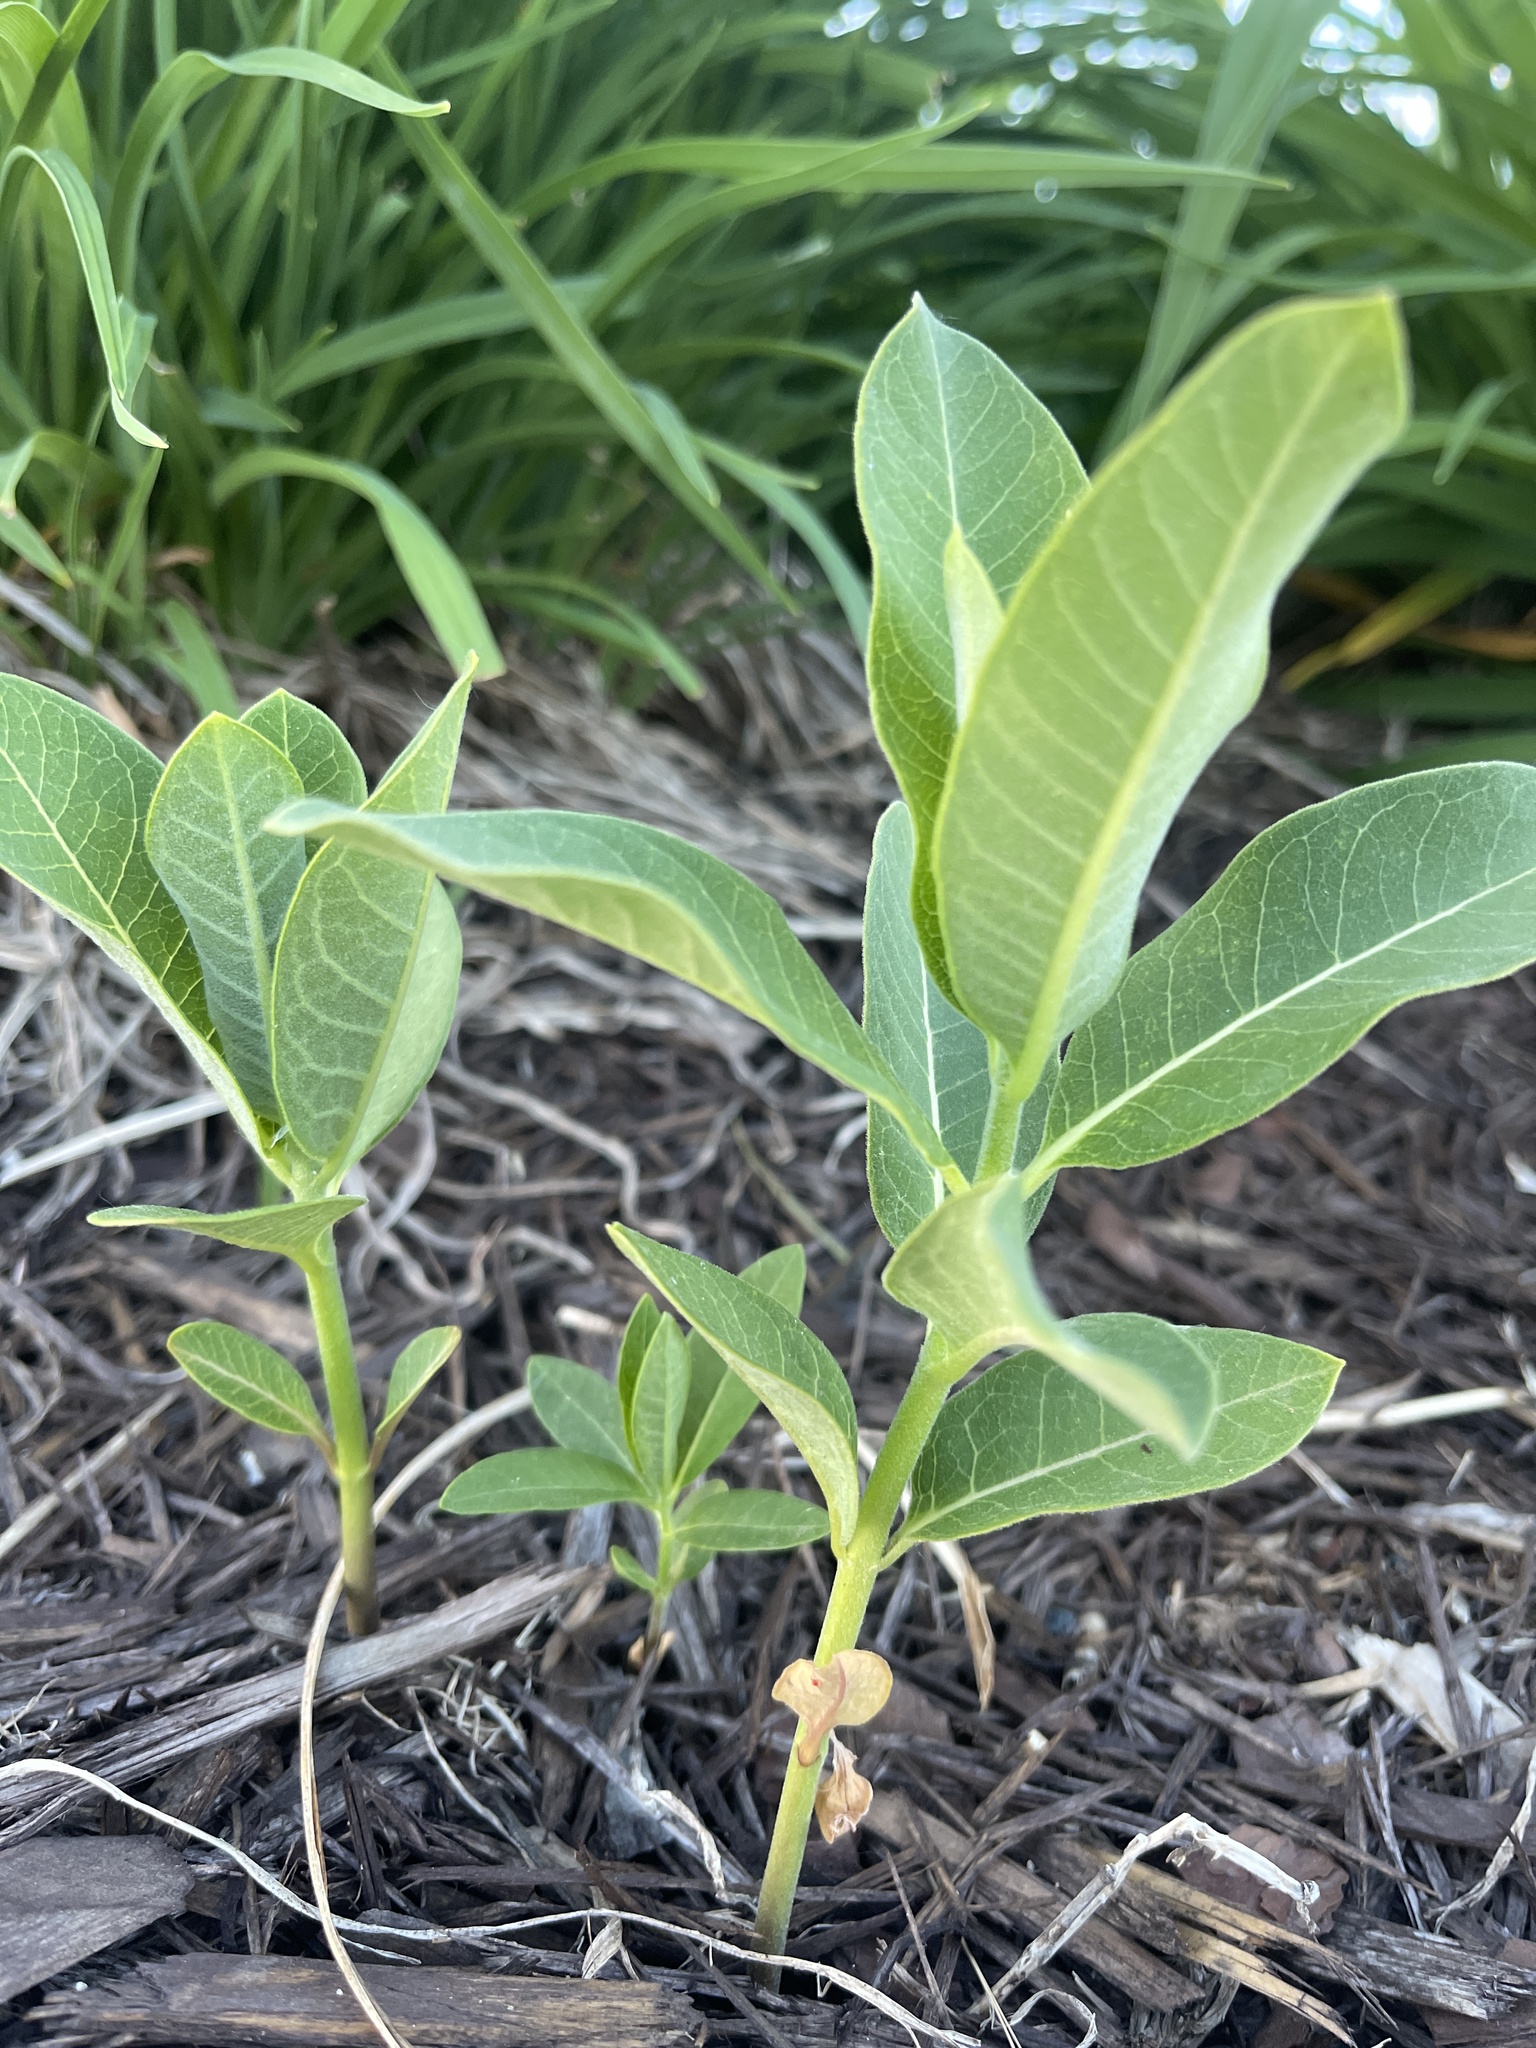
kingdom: Plantae
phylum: Tracheophyta
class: Magnoliopsida
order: Gentianales
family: Apocynaceae
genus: Asclepias
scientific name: Asclepias syriaca
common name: Common milkweed
